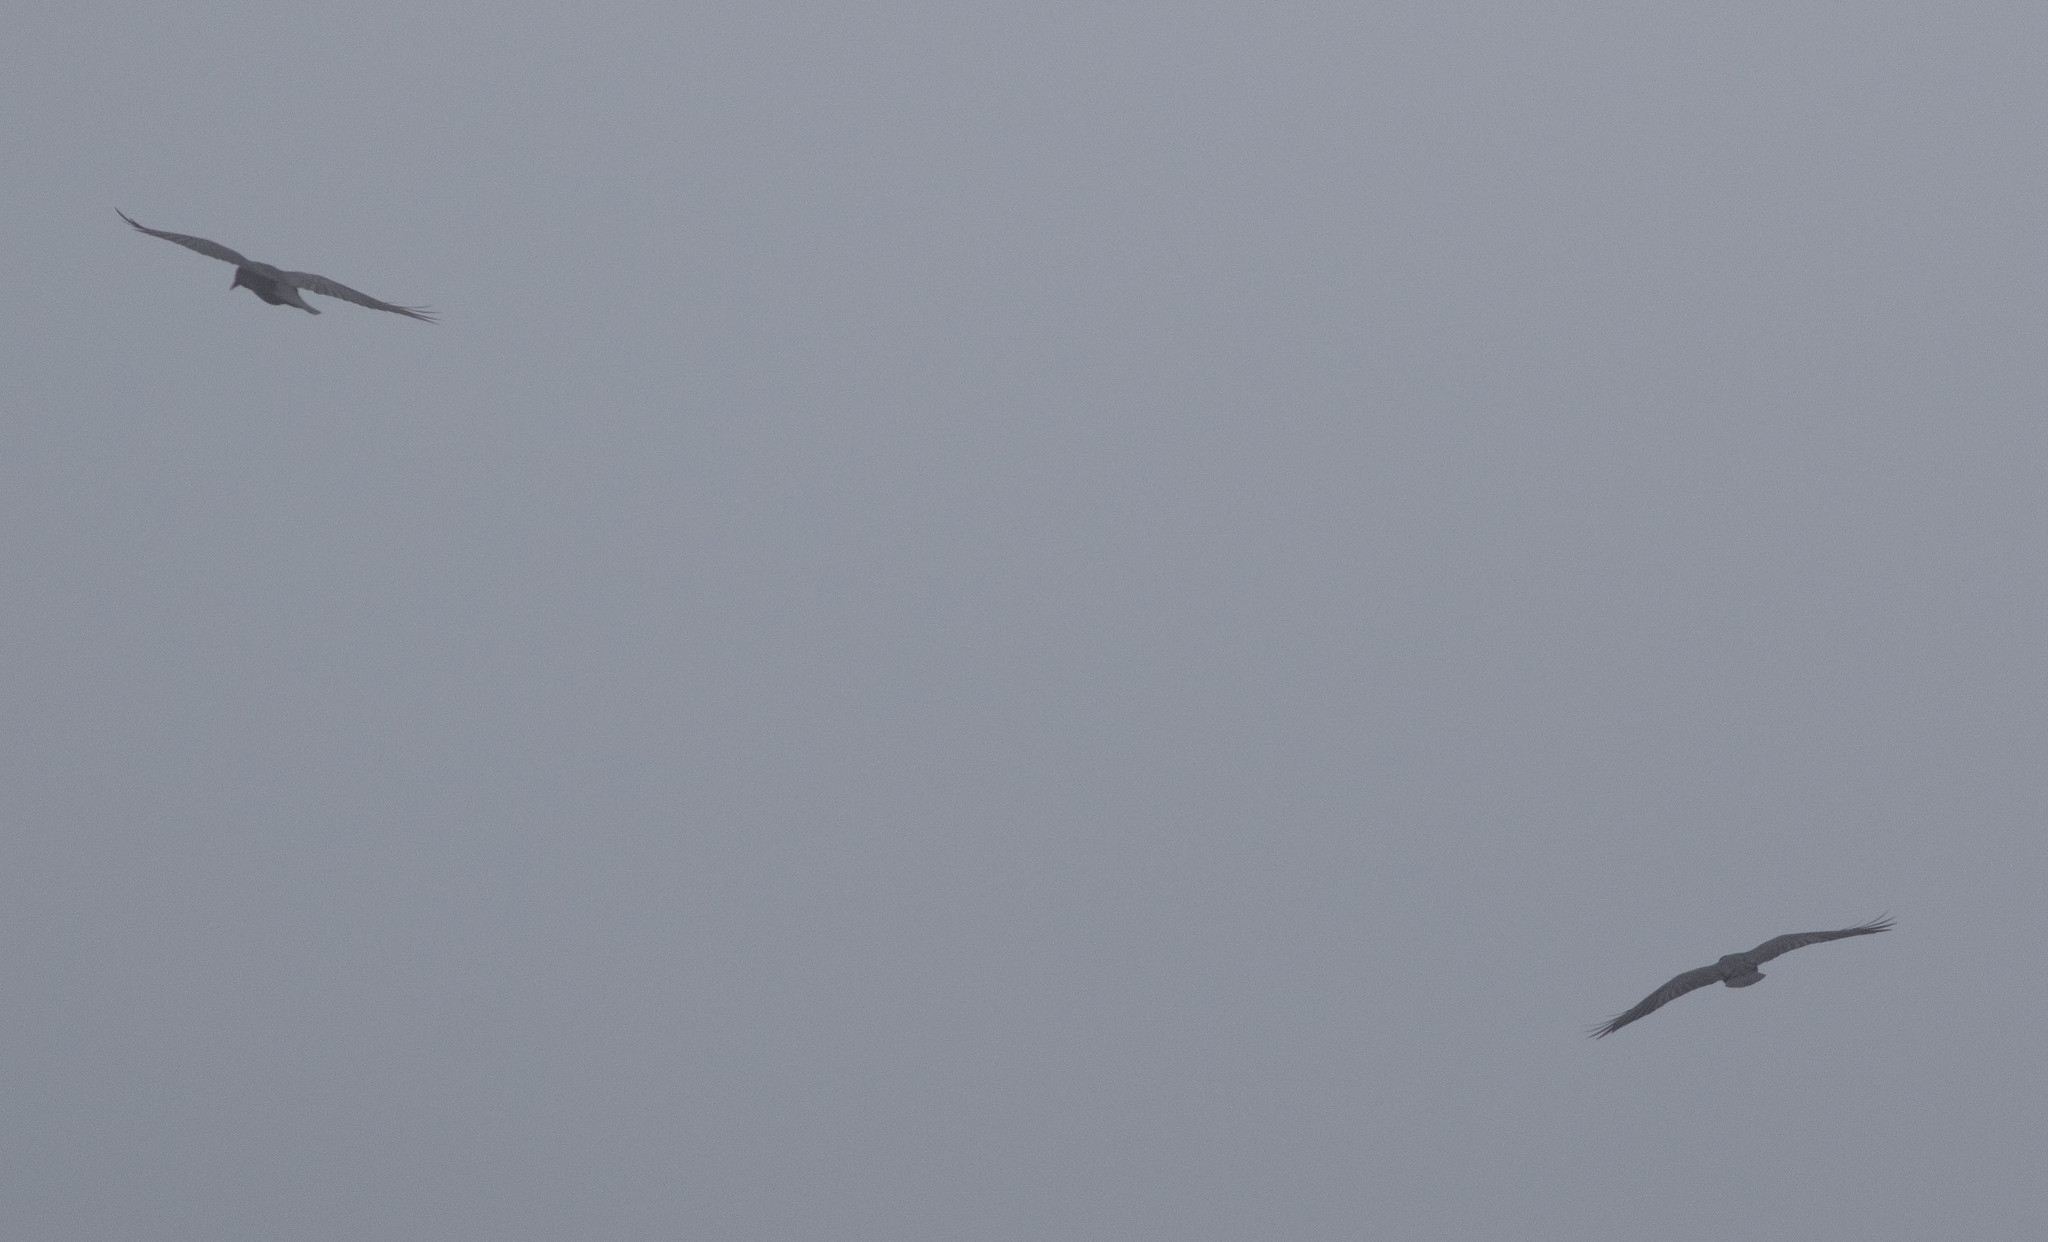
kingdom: Animalia
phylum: Chordata
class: Aves
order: Passeriformes
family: Corvidae
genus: Corvus
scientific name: Corvus corax
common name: Common raven
